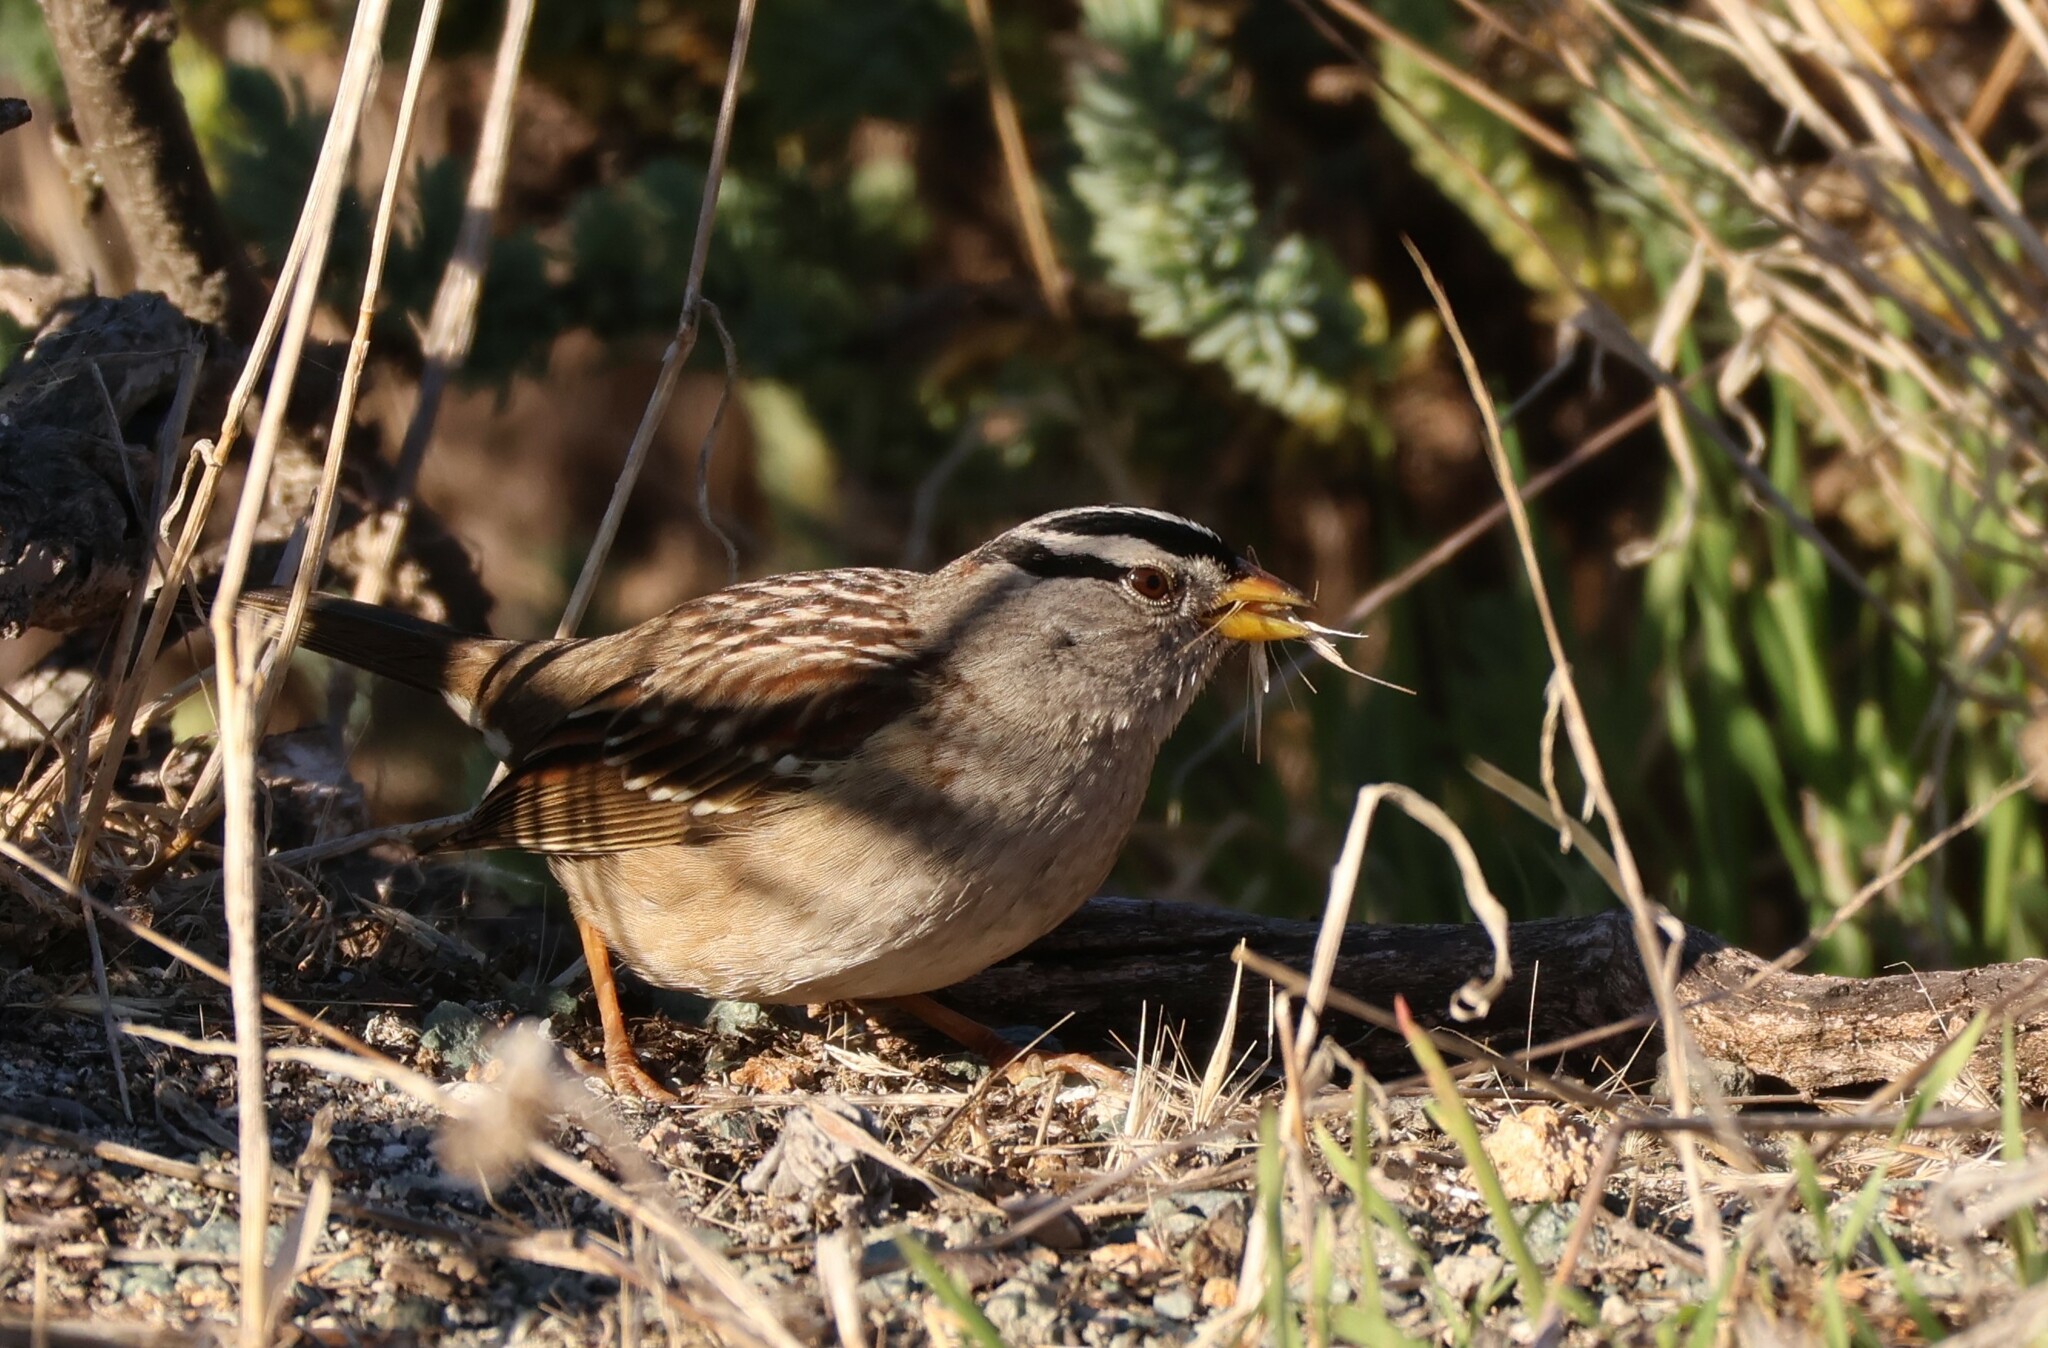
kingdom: Animalia
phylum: Chordata
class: Aves
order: Passeriformes
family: Passerellidae
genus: Zonotrichia
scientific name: Zonotrichia leucophrys
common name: White-crowned sparrow
